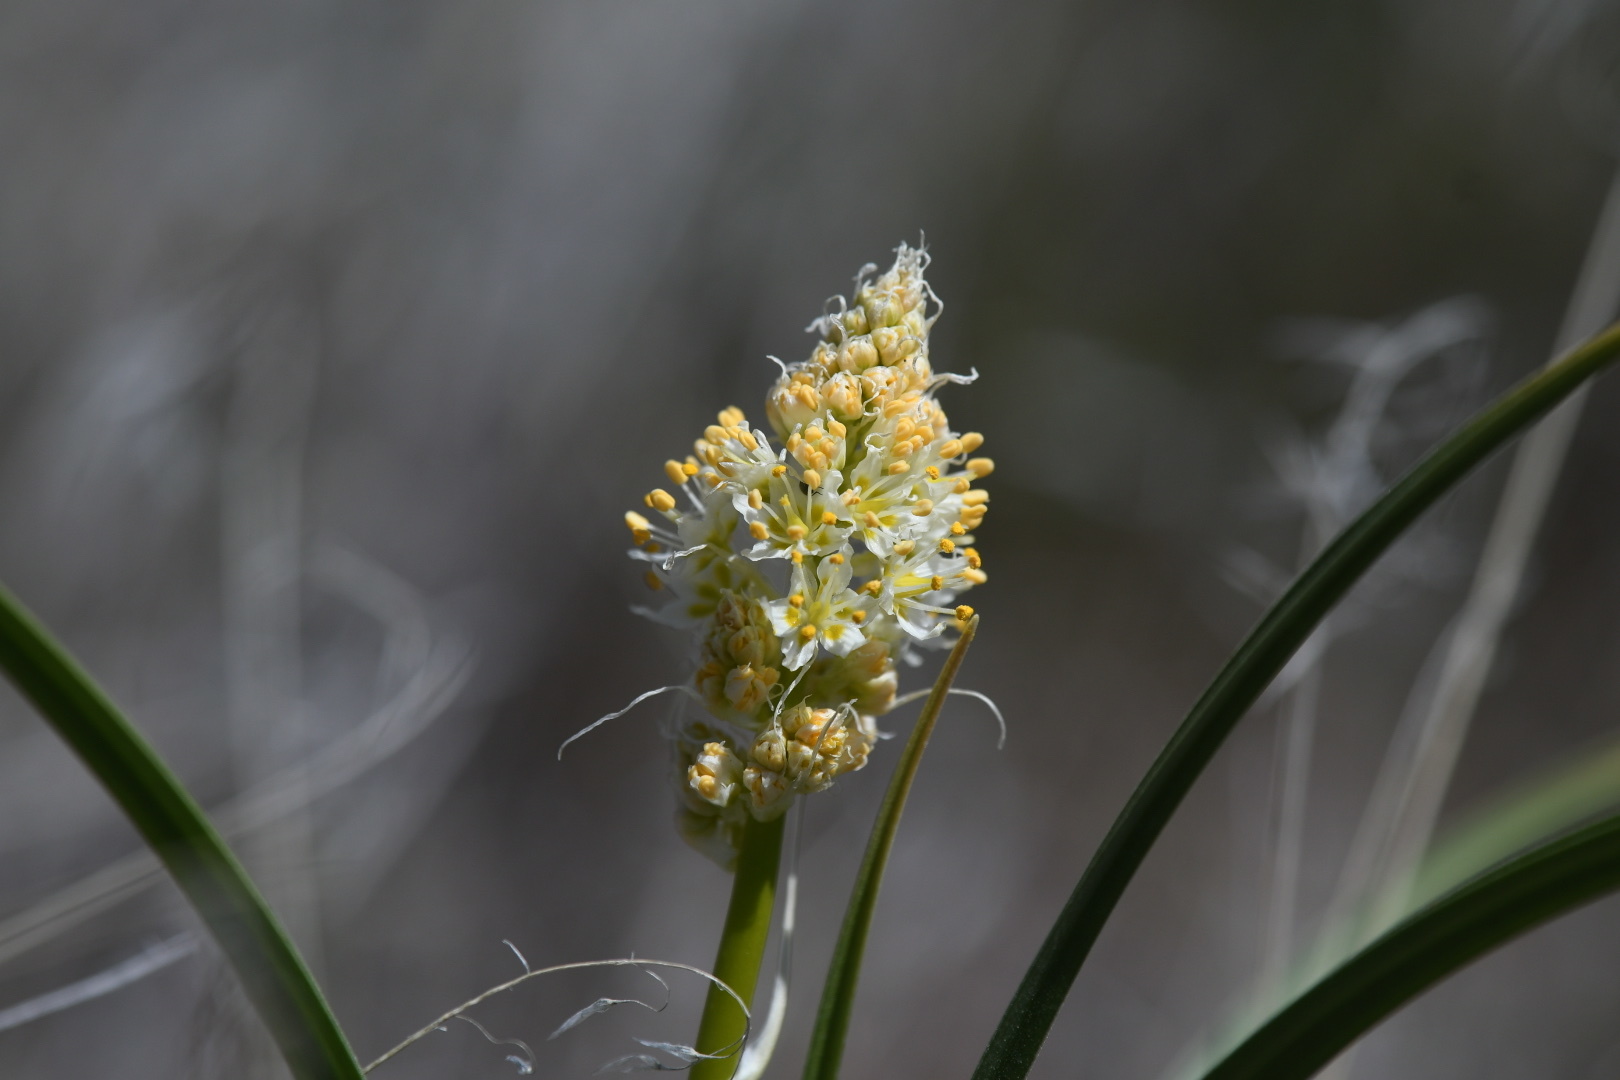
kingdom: Plantae
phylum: Tracheophyta
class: Liliopsida
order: Liliales
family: Melanthiaceae
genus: Toxicoscordion
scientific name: Toxicoscordion paniculatum
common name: Foothill death camas
